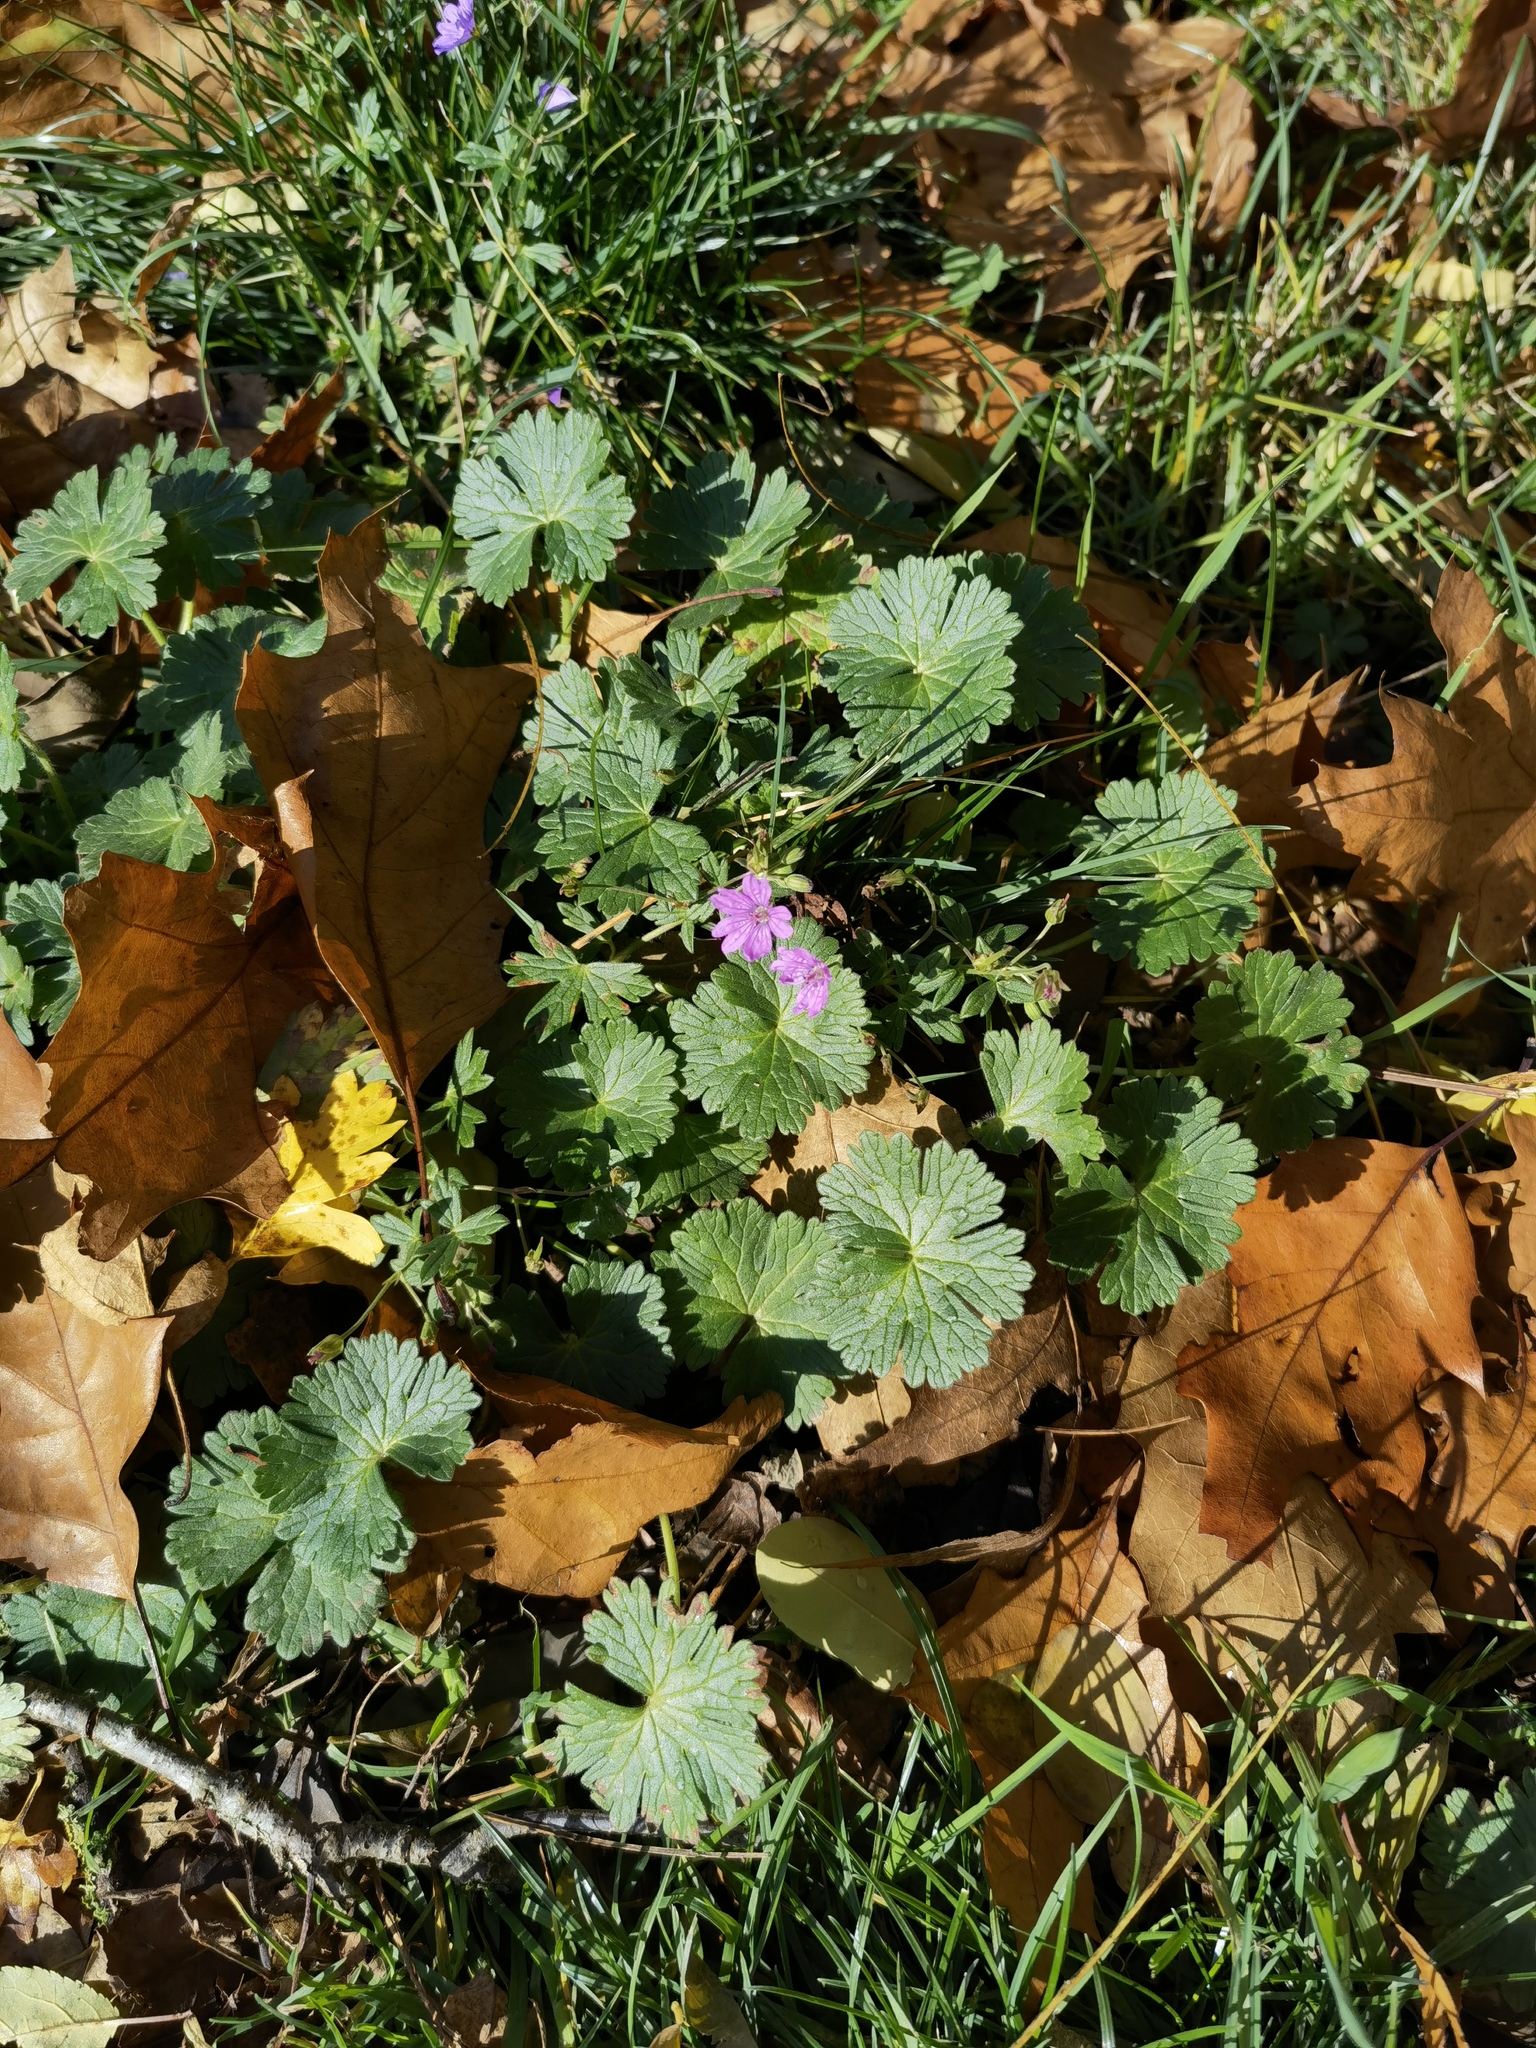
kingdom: Plantae
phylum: Tracheophyta
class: Magnoliopsida
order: Geraniales
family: Geraniaceae
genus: Geranium
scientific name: Geranium pyrenaicum
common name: Hedgerow crane's-bill
